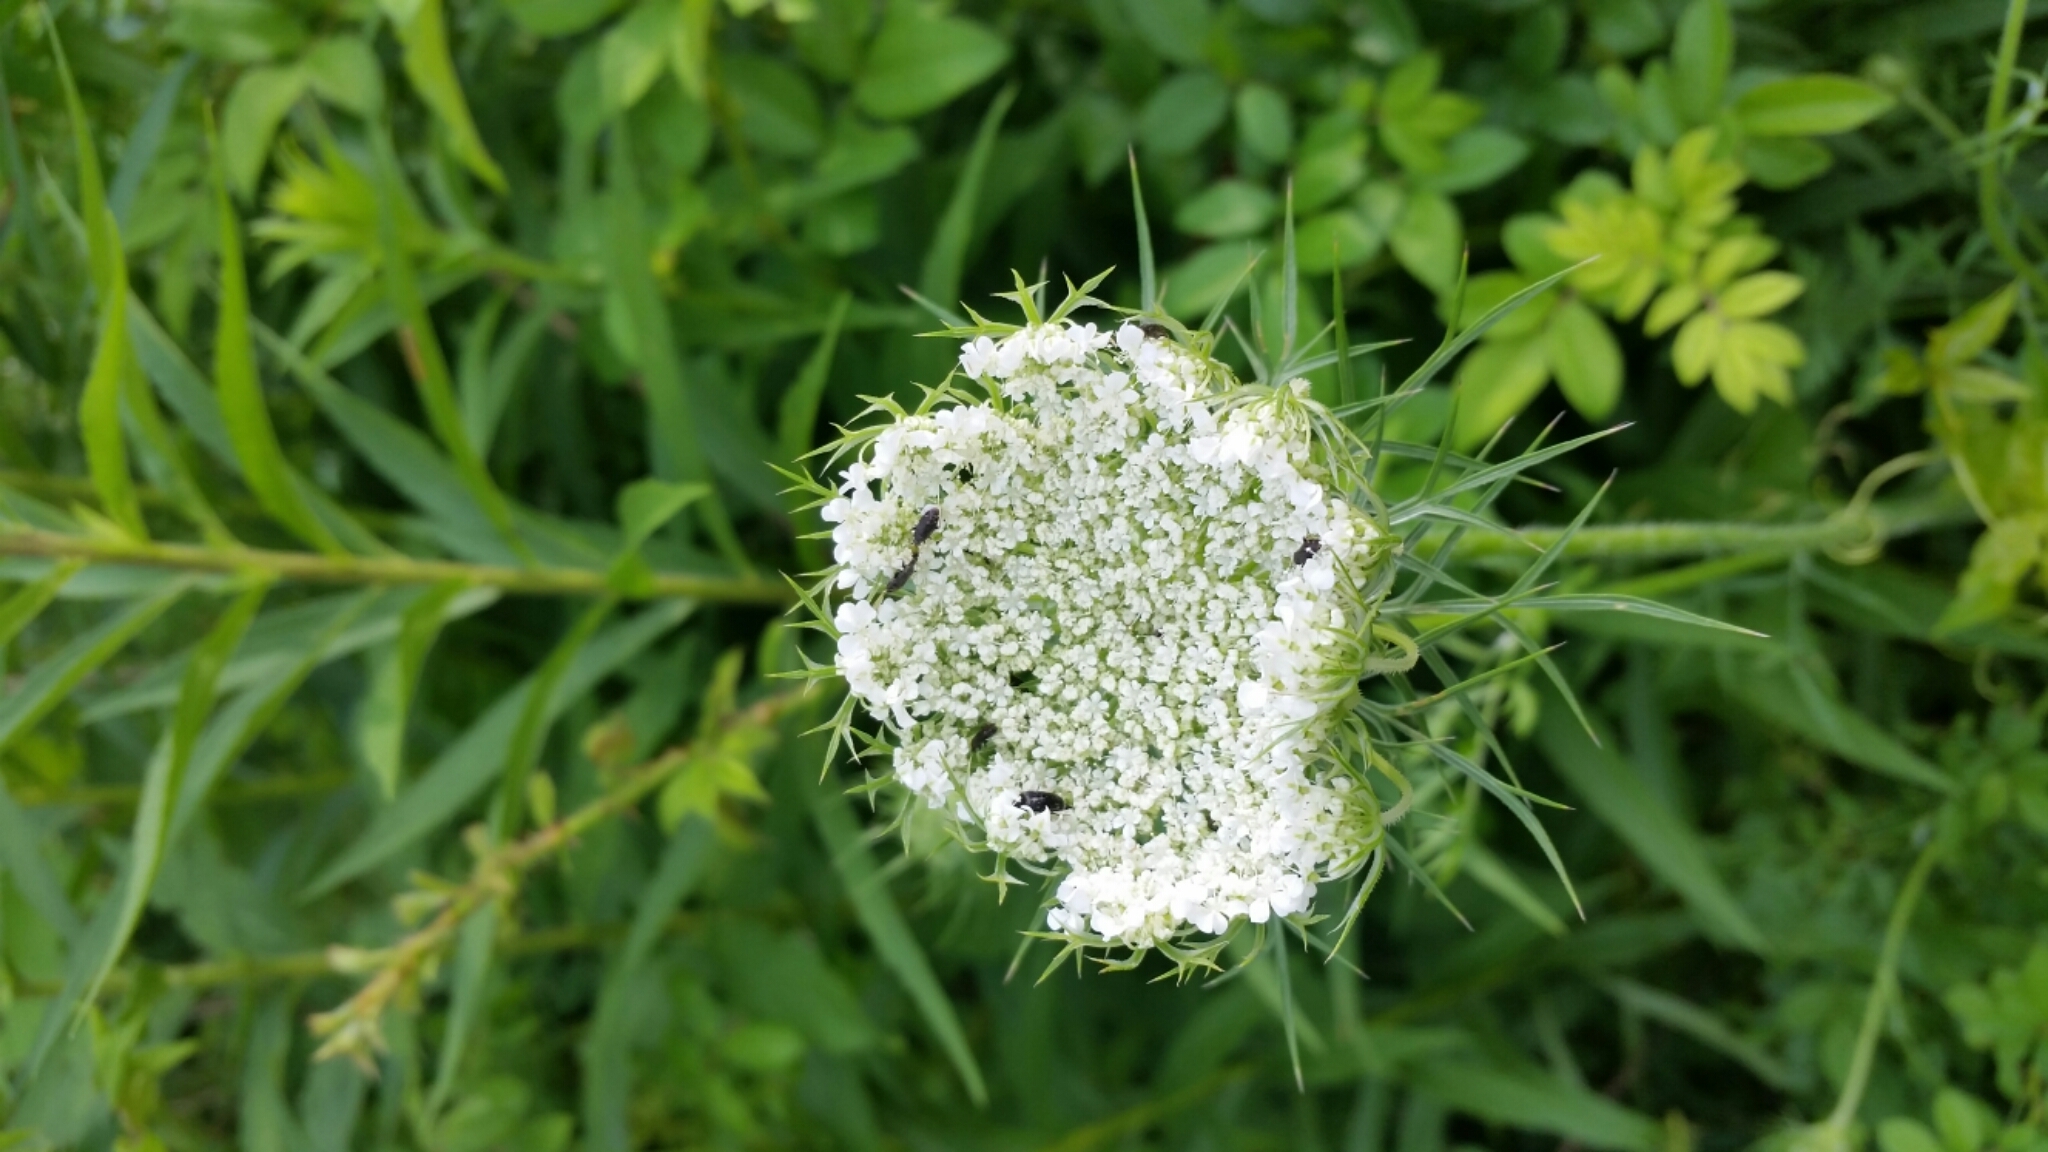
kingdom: Plantae
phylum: Tracheophyta
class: Magnoliopsida
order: Apiales
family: Apiaceae
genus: Daucus
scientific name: Daucus carota
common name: Wild carrot
